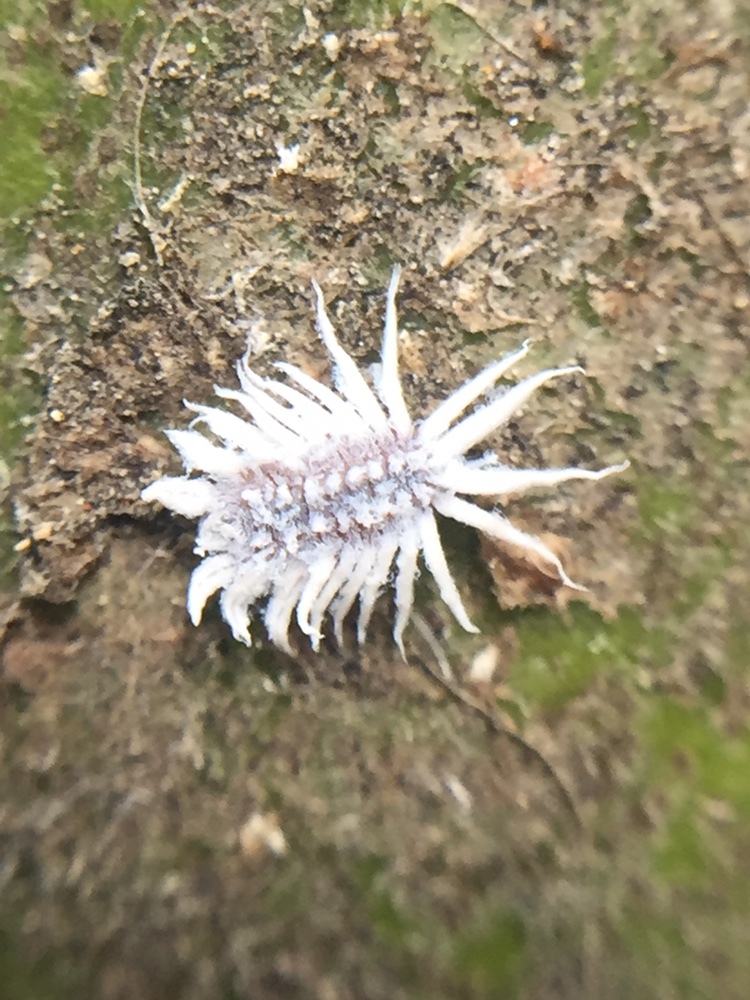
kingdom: Animalia
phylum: Arthropoda
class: Insecta
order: Coleoptera
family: Coccinellidae
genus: Telsimia
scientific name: Telsimia
